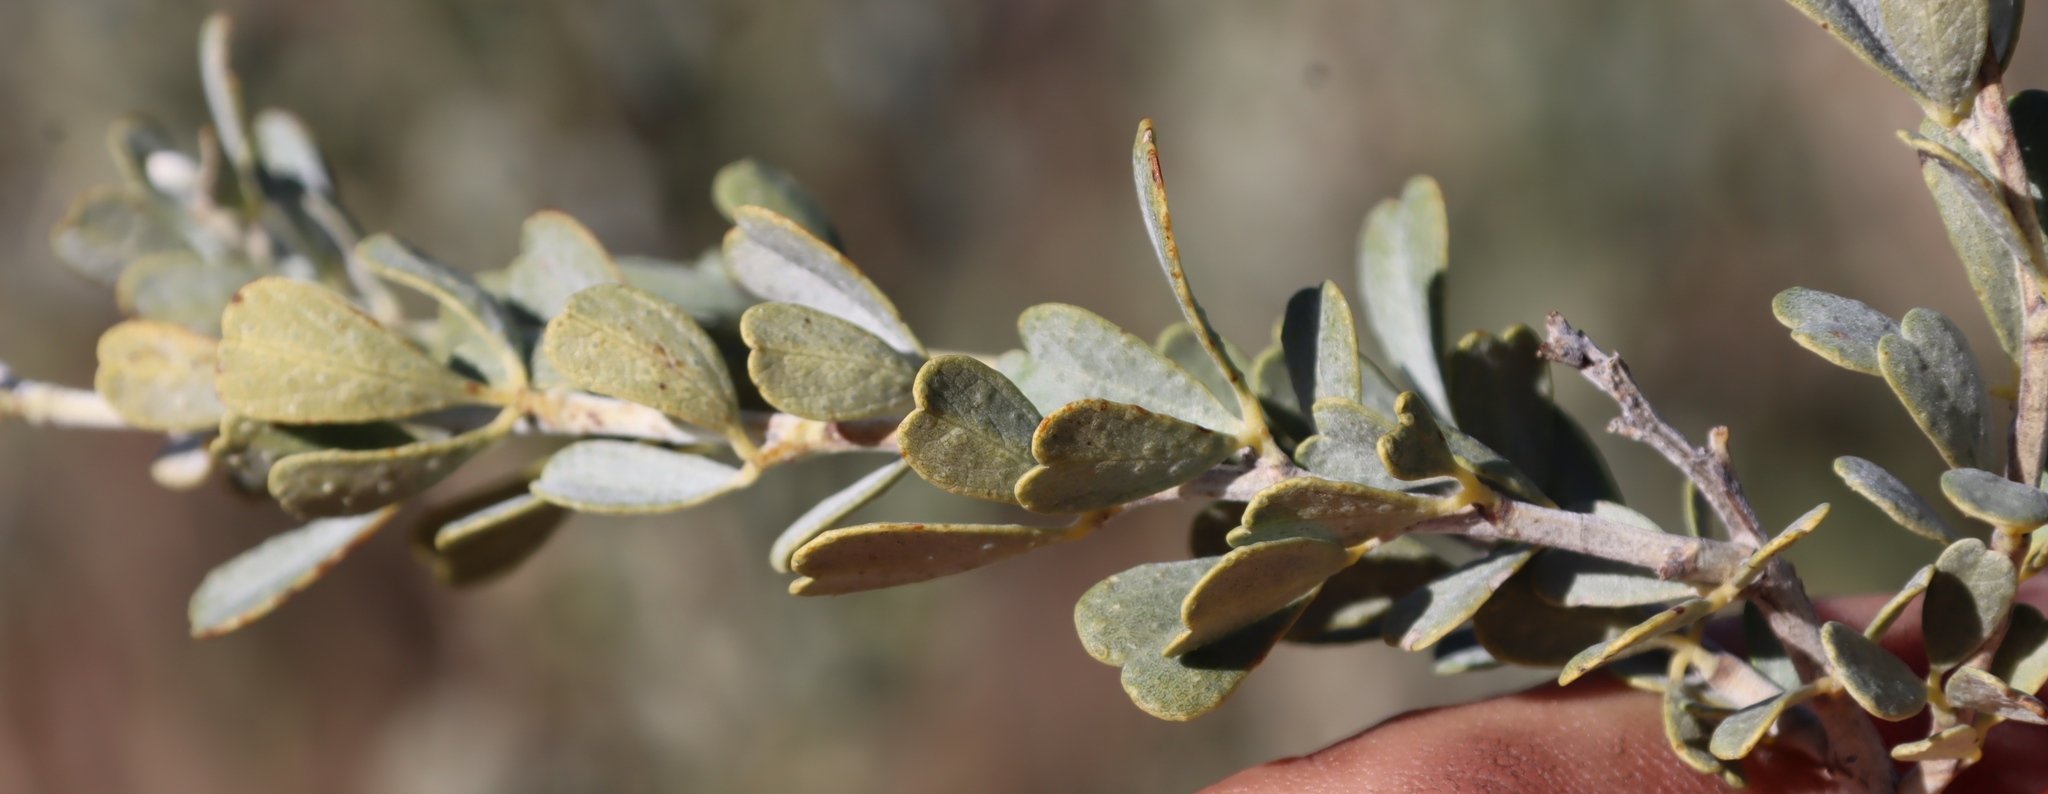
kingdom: Plantae
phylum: Tracheophyta
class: Magnoliopsida
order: Fabales
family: Fabaceae
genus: Psoralea
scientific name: Psoralea velutina
